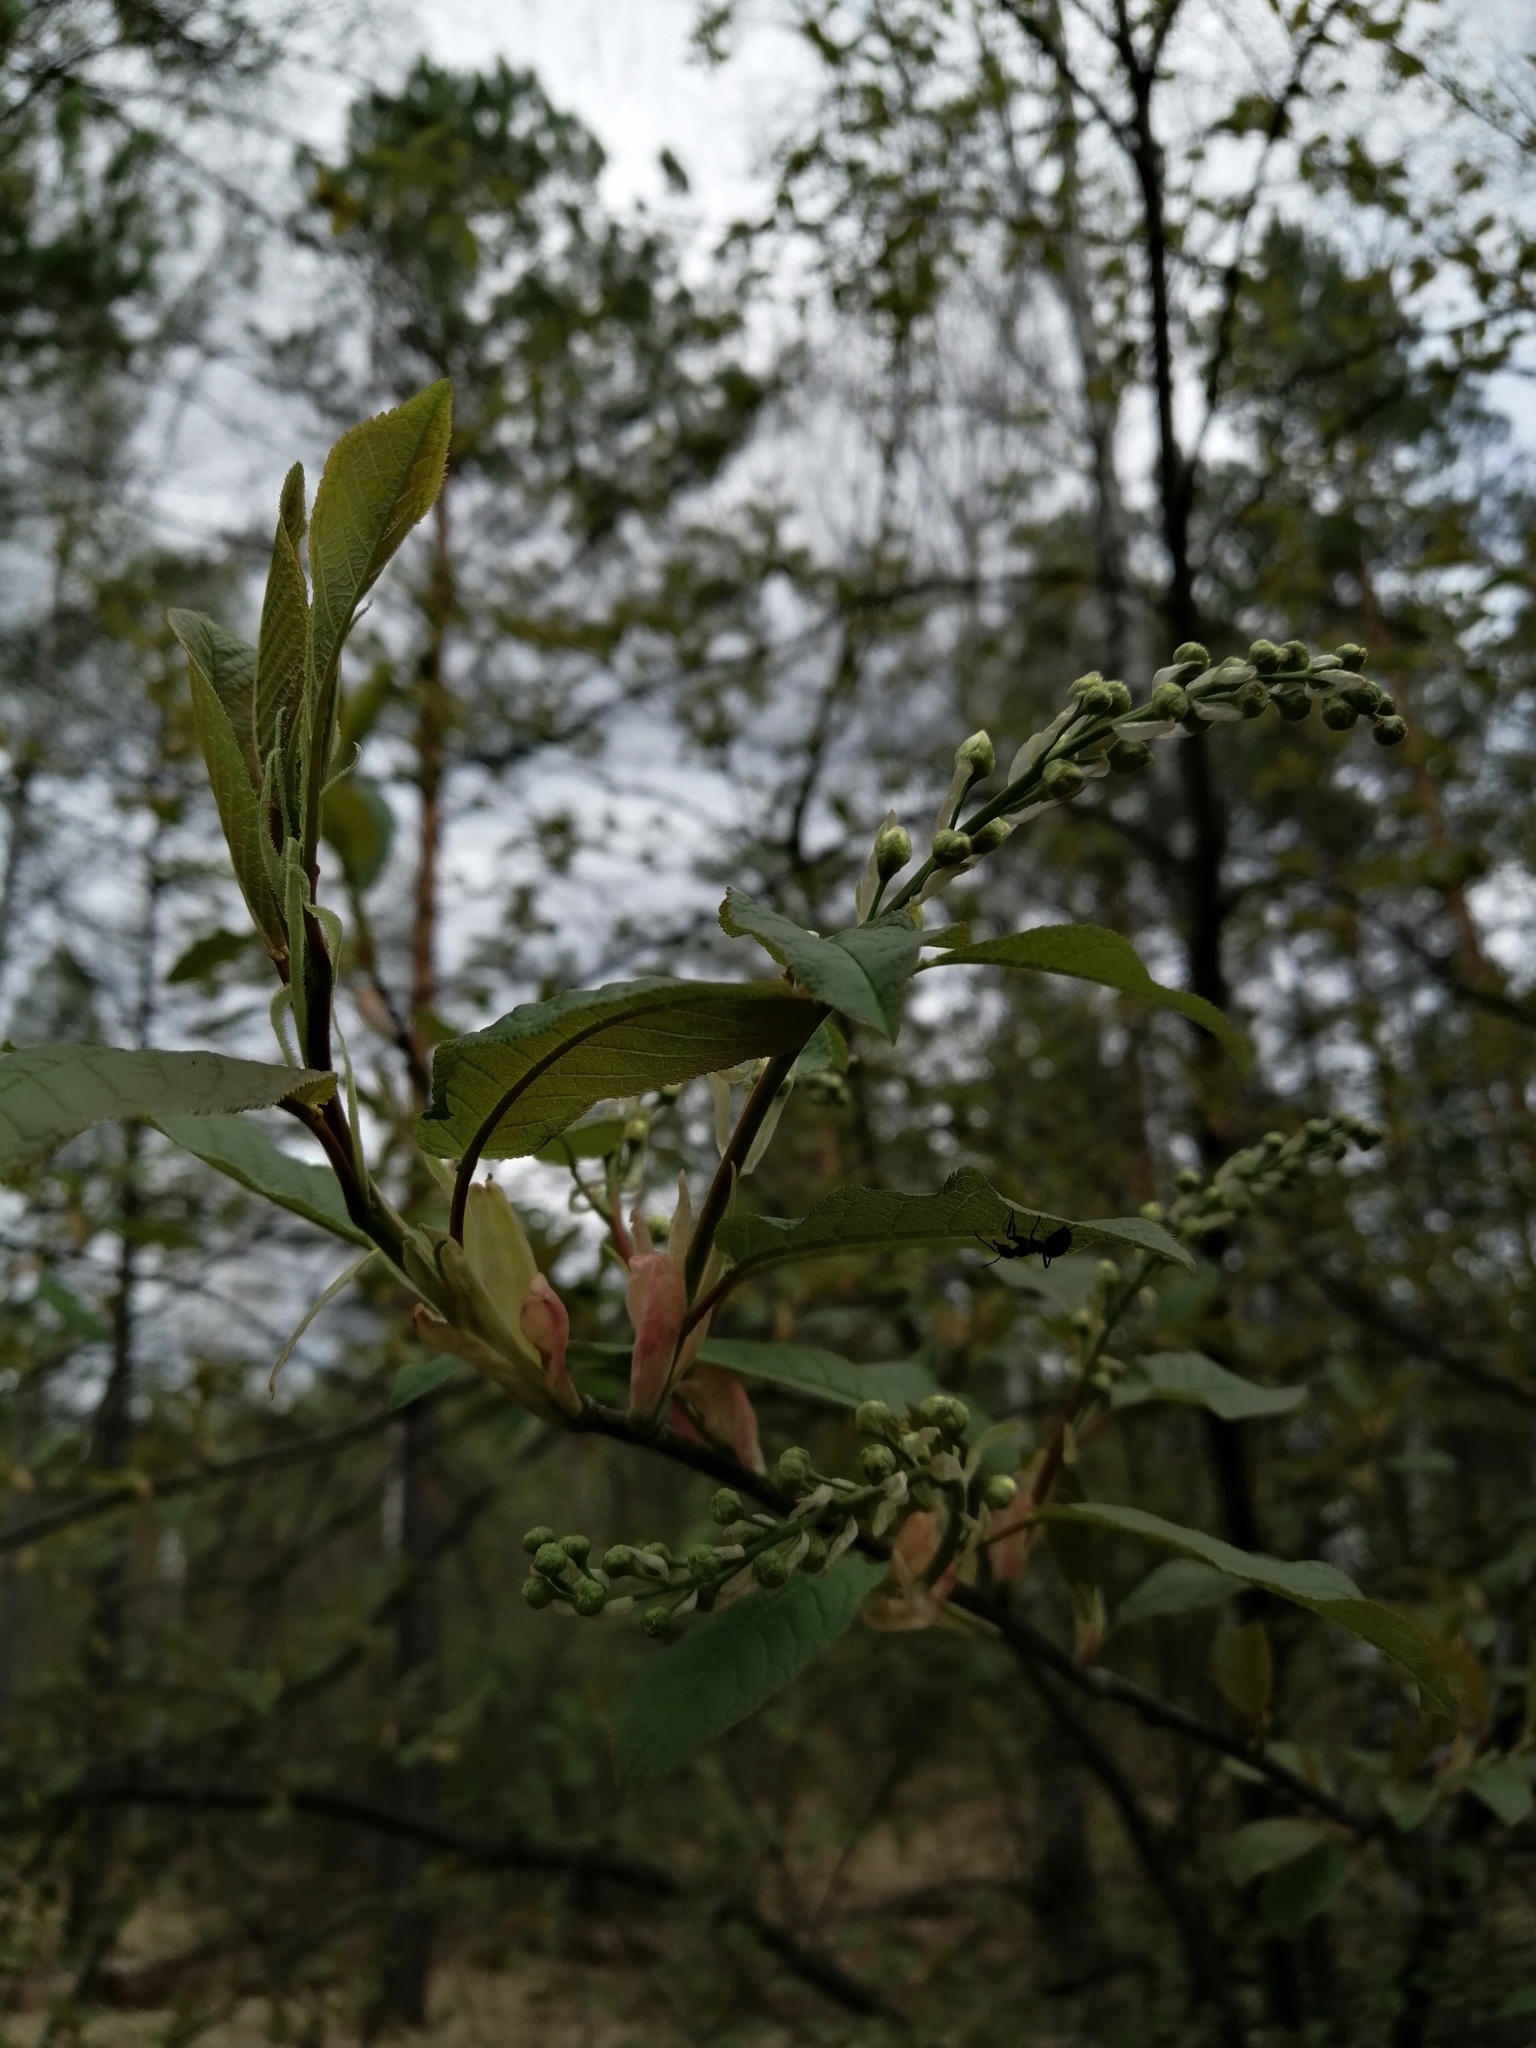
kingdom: Plantae
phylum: Tracheophyta
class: Magnoliopsida
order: Rosales
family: Rosaceae
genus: Prunus
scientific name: Prunus padus
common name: Bird cherry
